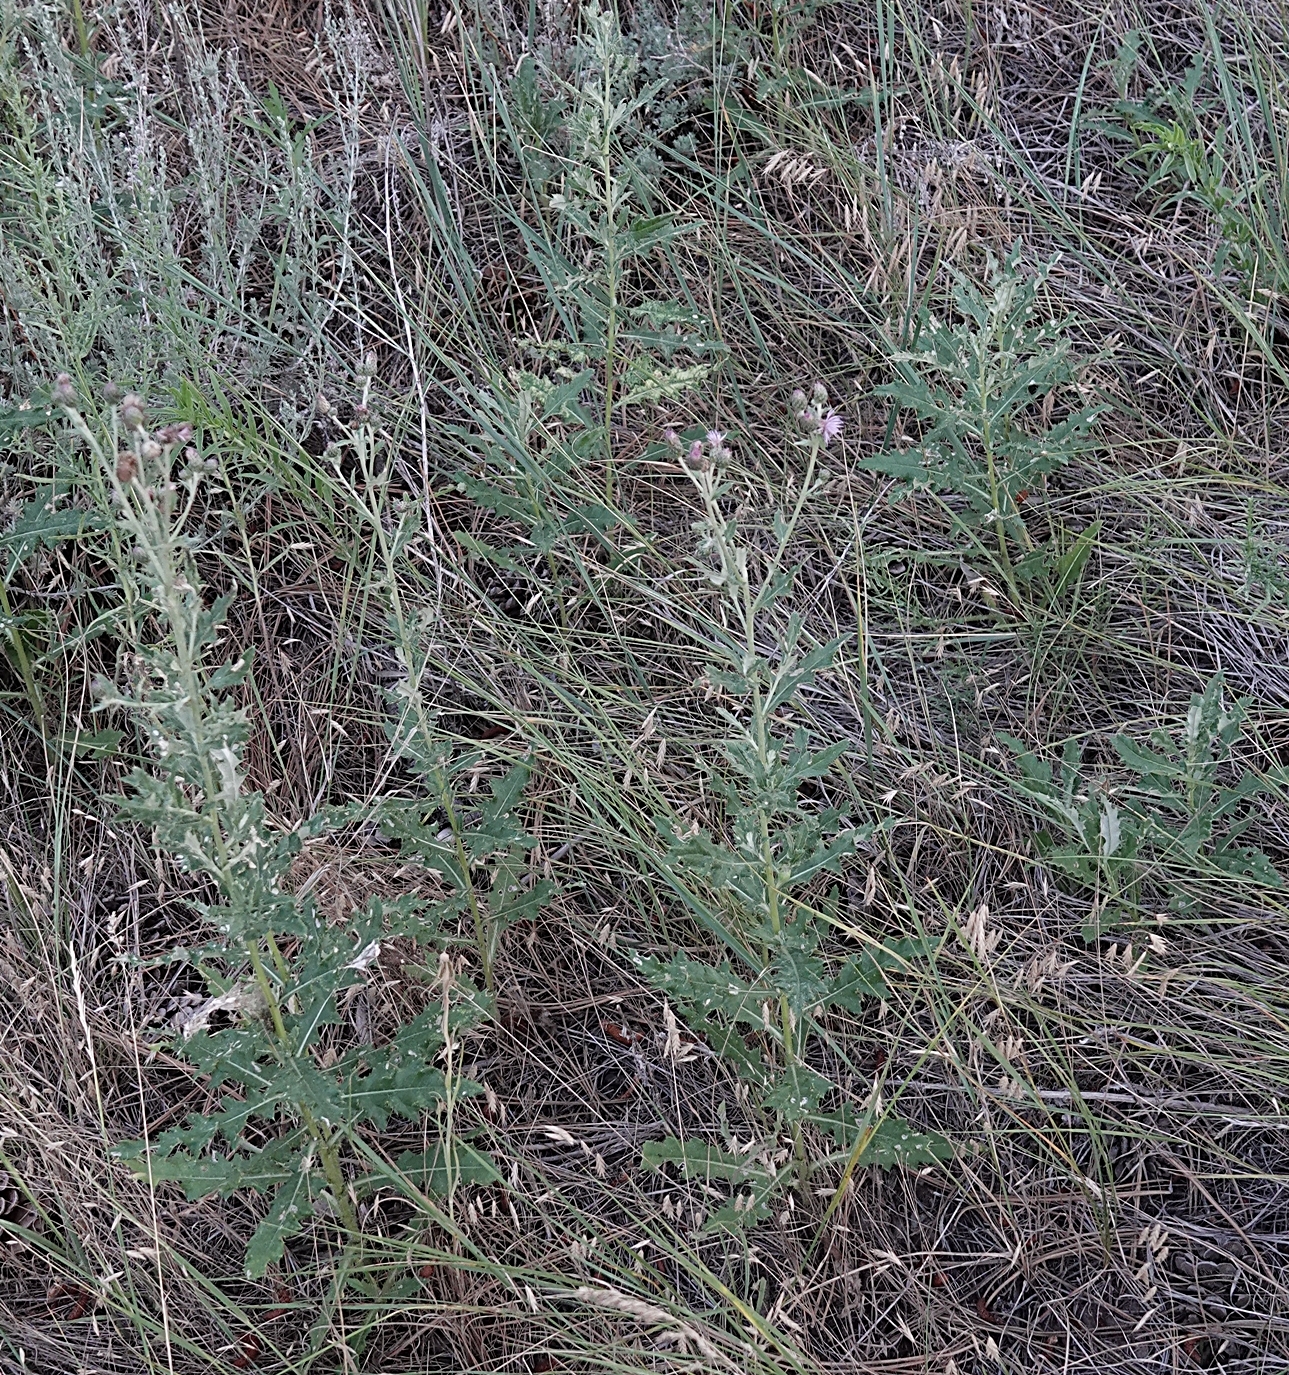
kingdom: Plantae
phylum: Tracheophyta
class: Magnoliopsida
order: Asterales
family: Asteraceae
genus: Cirsium
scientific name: Cirsium arvense
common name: Creeping thistle
